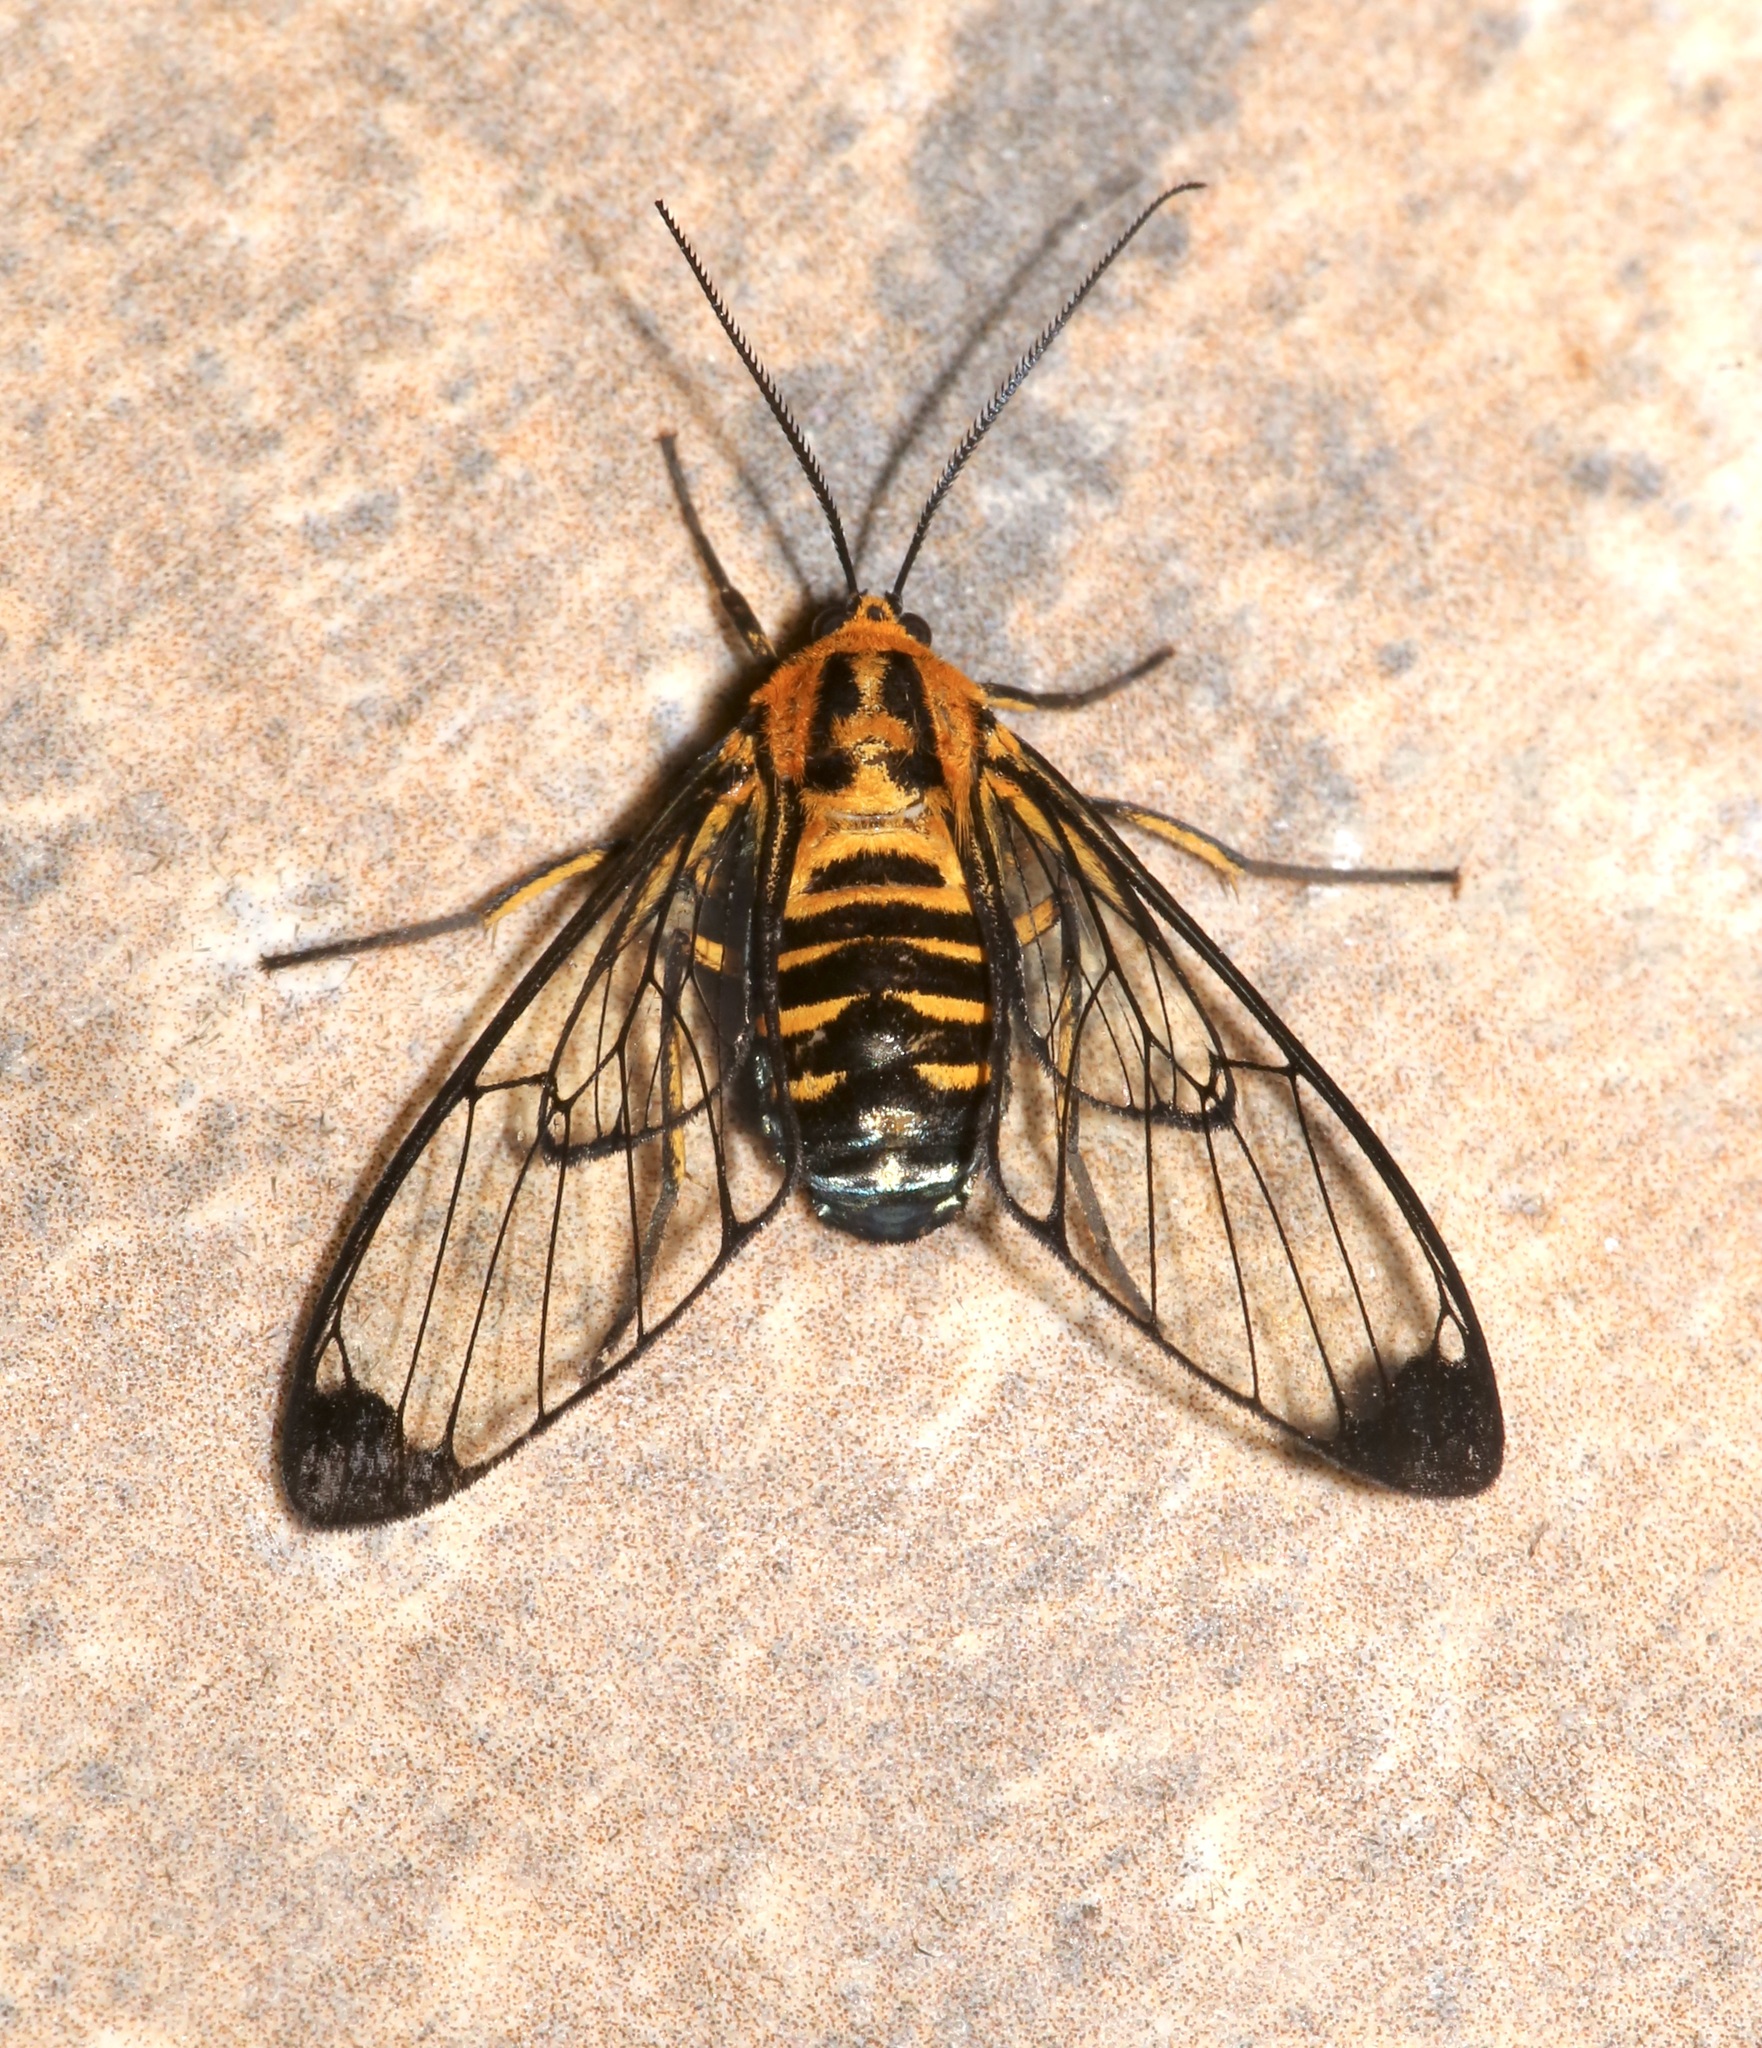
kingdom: Animalia
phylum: Arthropoda
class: Insecta
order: Lepidoptera
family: Erebidae
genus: Gymnelia
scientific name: Gymnelia carabayana
